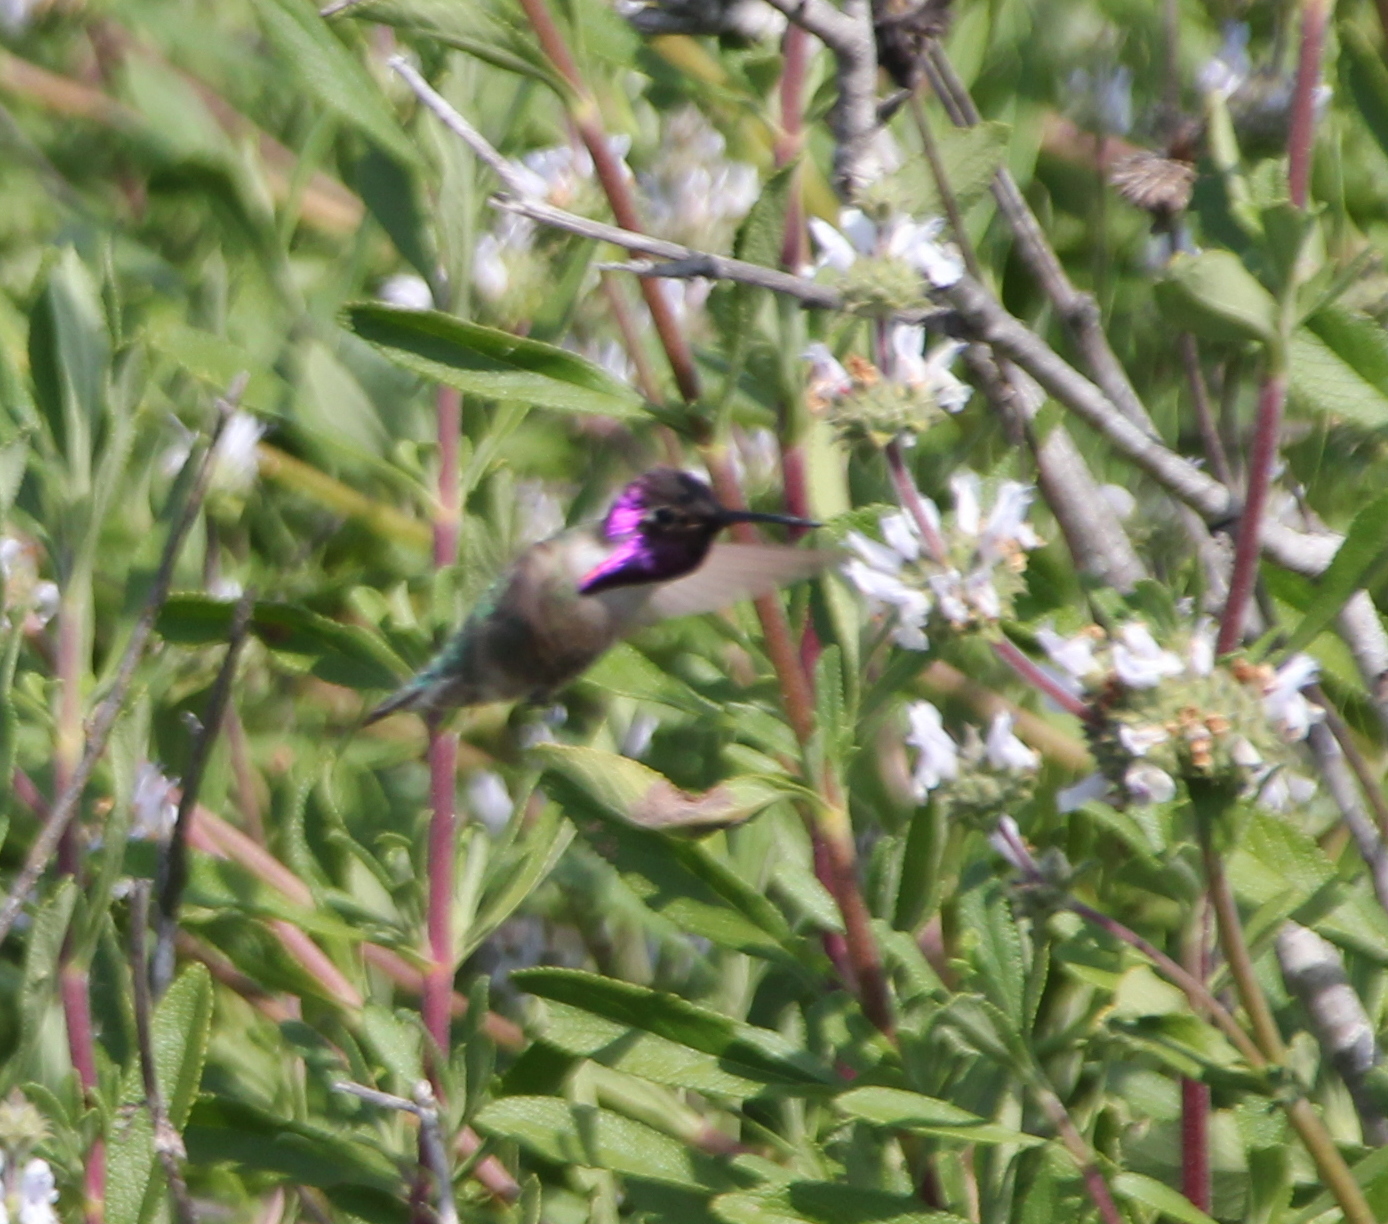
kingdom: Animalia
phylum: Chordata
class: Aves
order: Apodiformes
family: Trochilidae
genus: Calypte
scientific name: Calypte costae
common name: Costa's hummingbird
